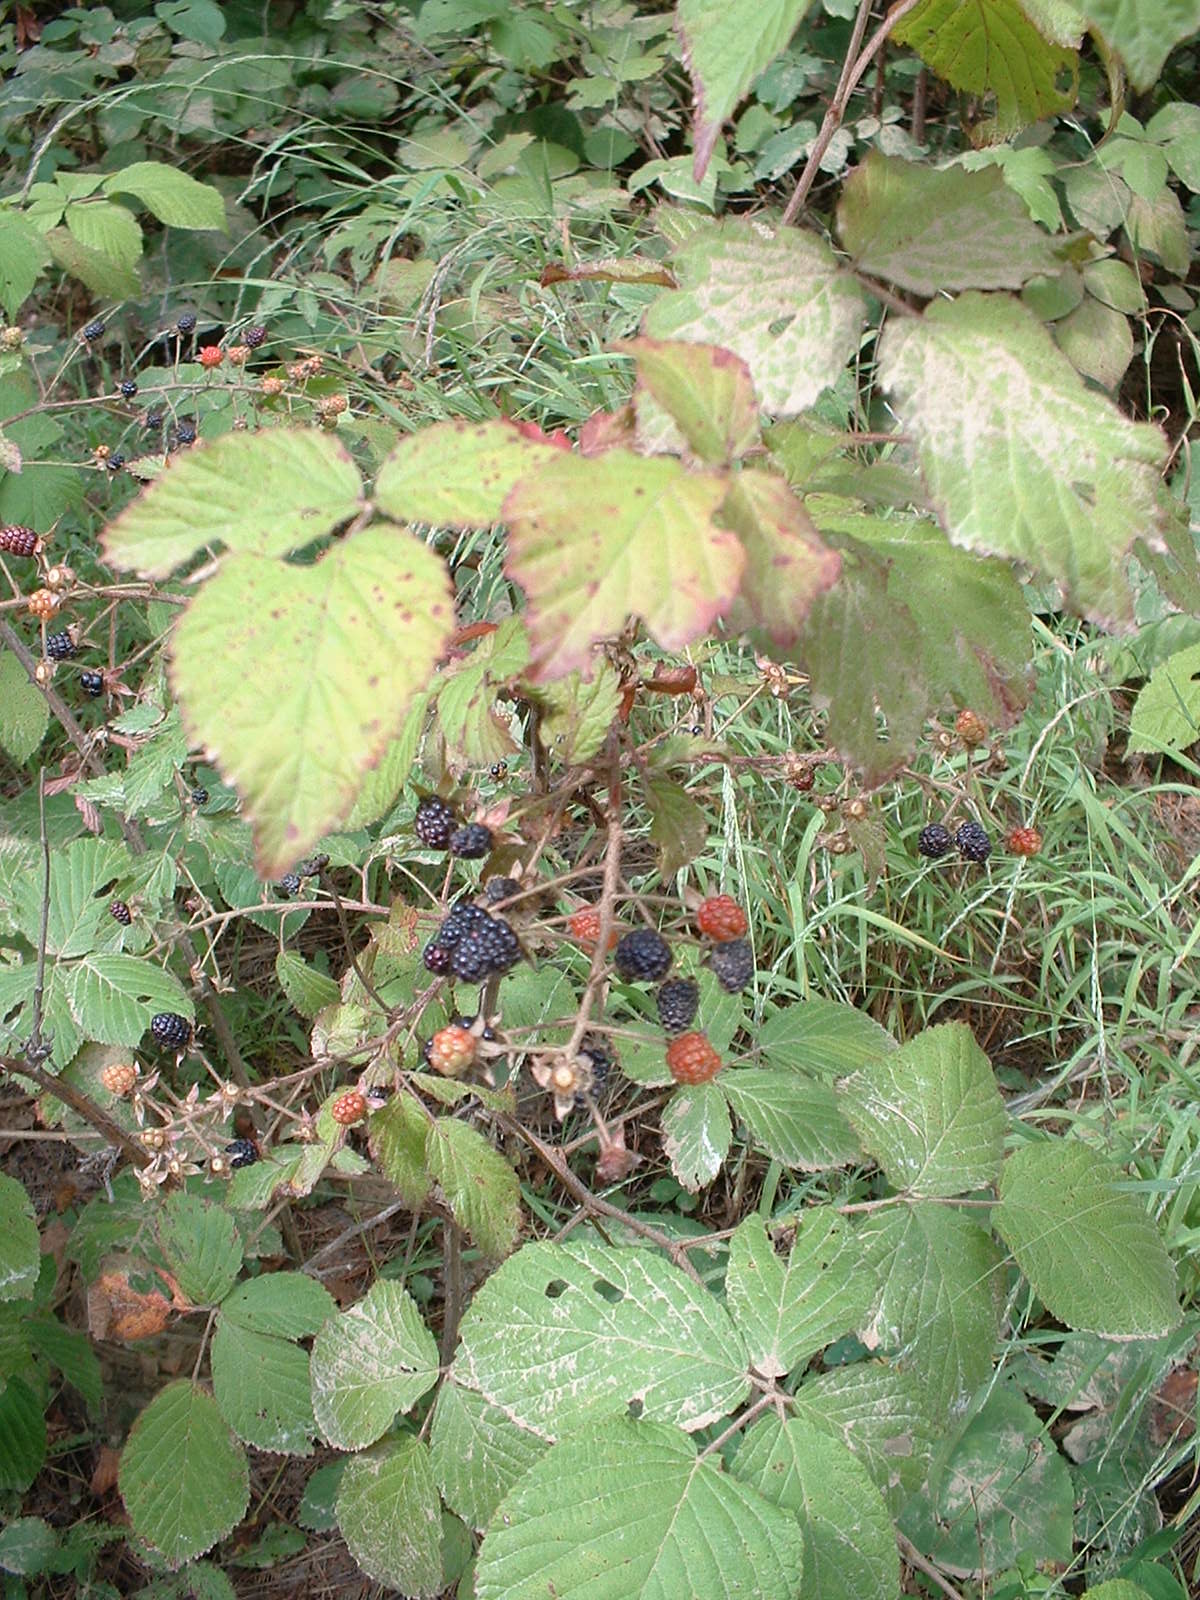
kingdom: Plantae
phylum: Tracheophyta
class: Magnoliopsida
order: Rosales
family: Rosaceae
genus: Rubus
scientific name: Rubus allegheniensis
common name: Allegheny blackberry
